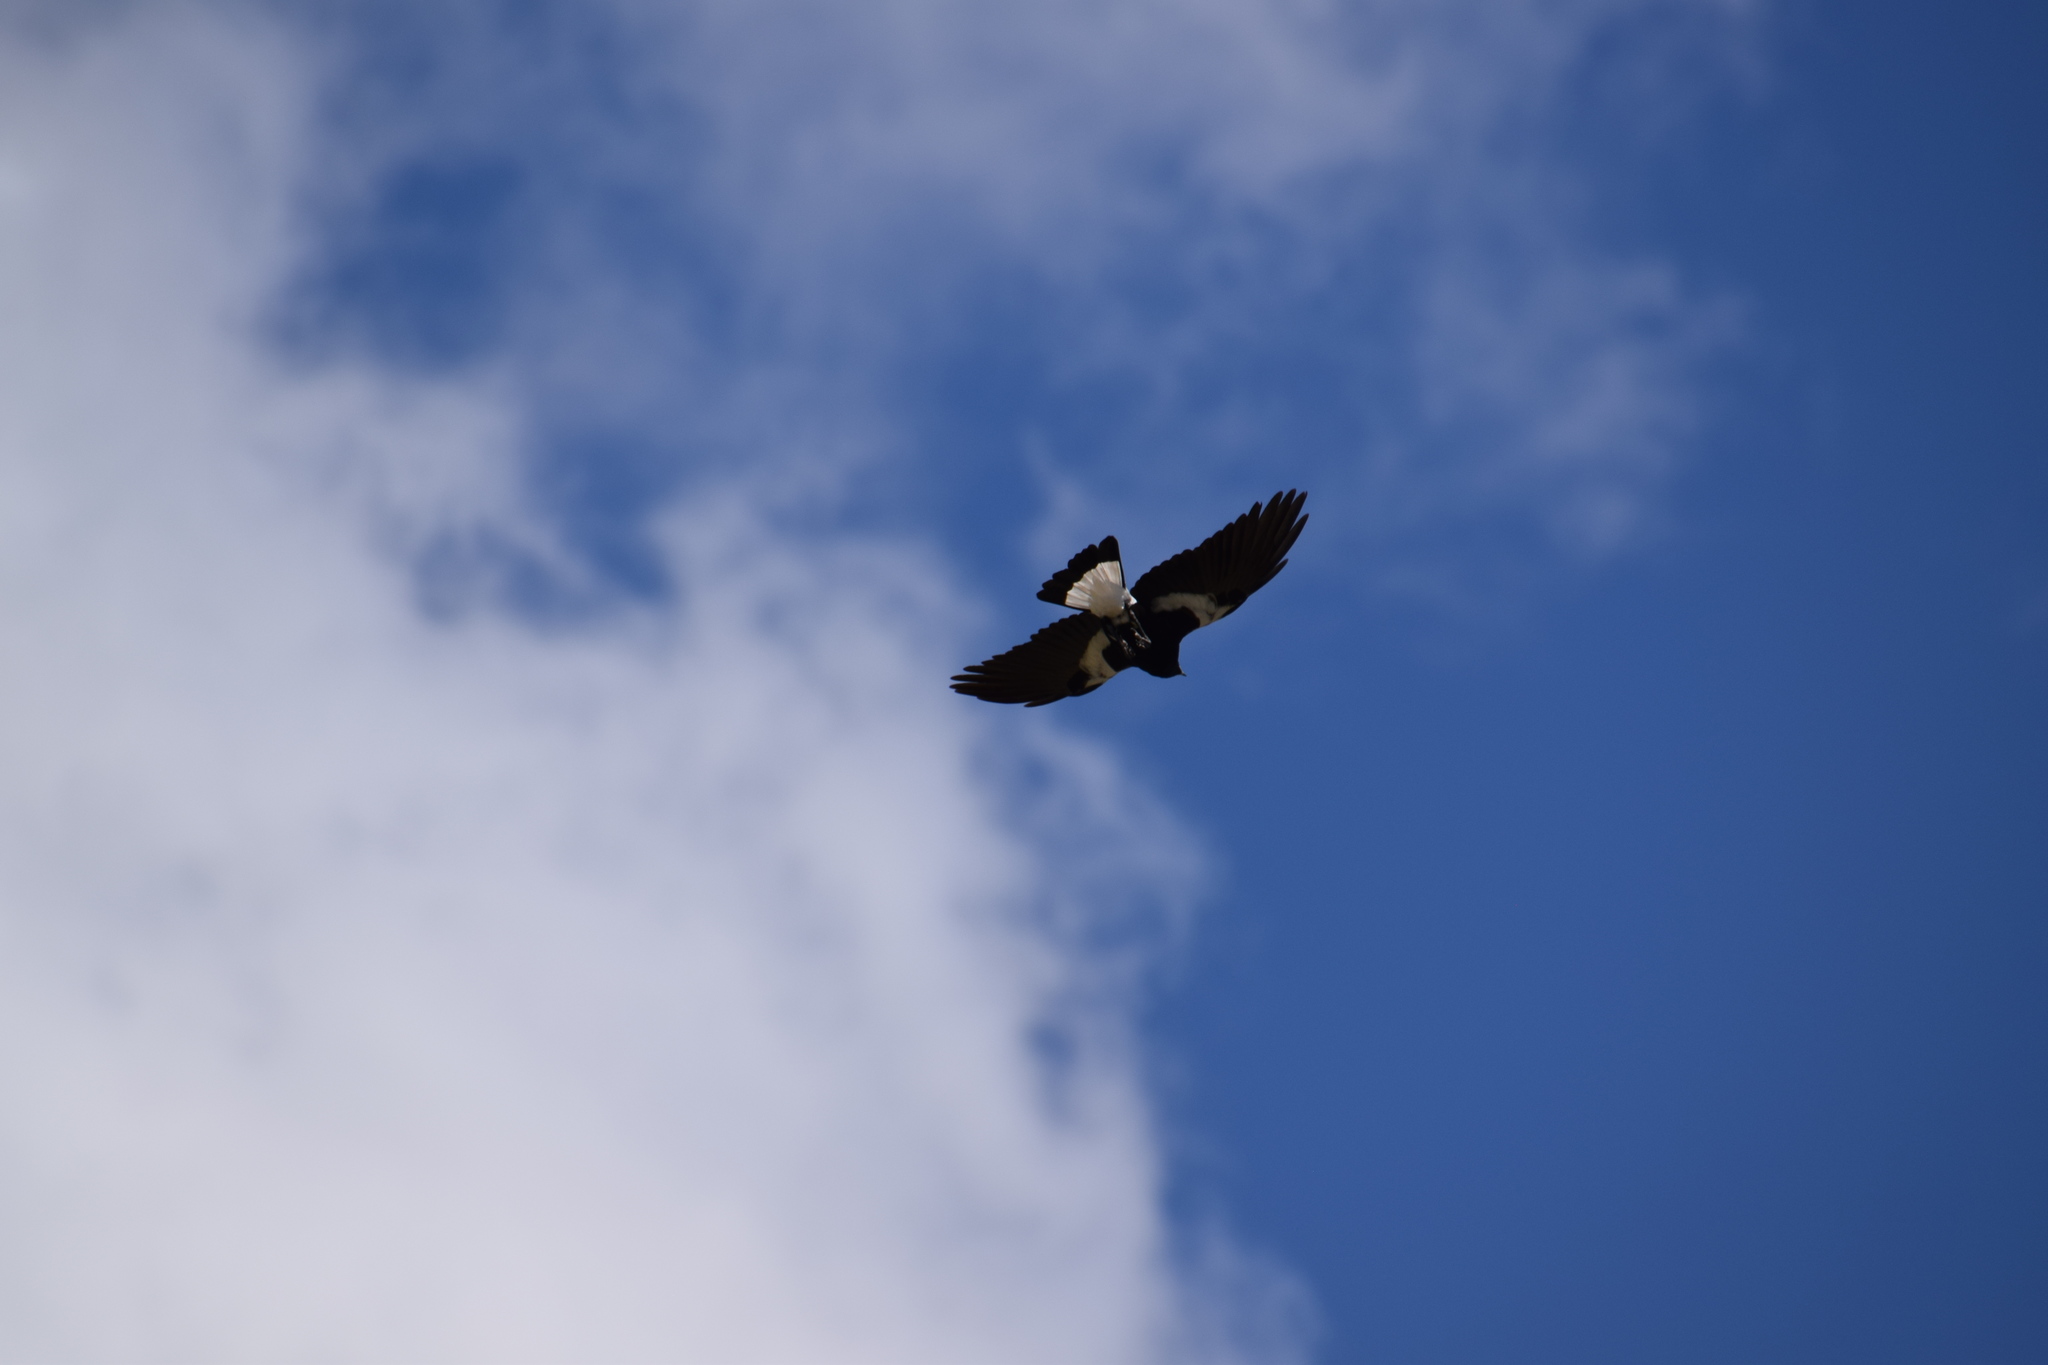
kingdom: Animalia
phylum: Chordata
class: Aves
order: Passeriformes
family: Cracticidae
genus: Gymnorhina
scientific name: Gymnorhina tibicen
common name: Australian magpie
